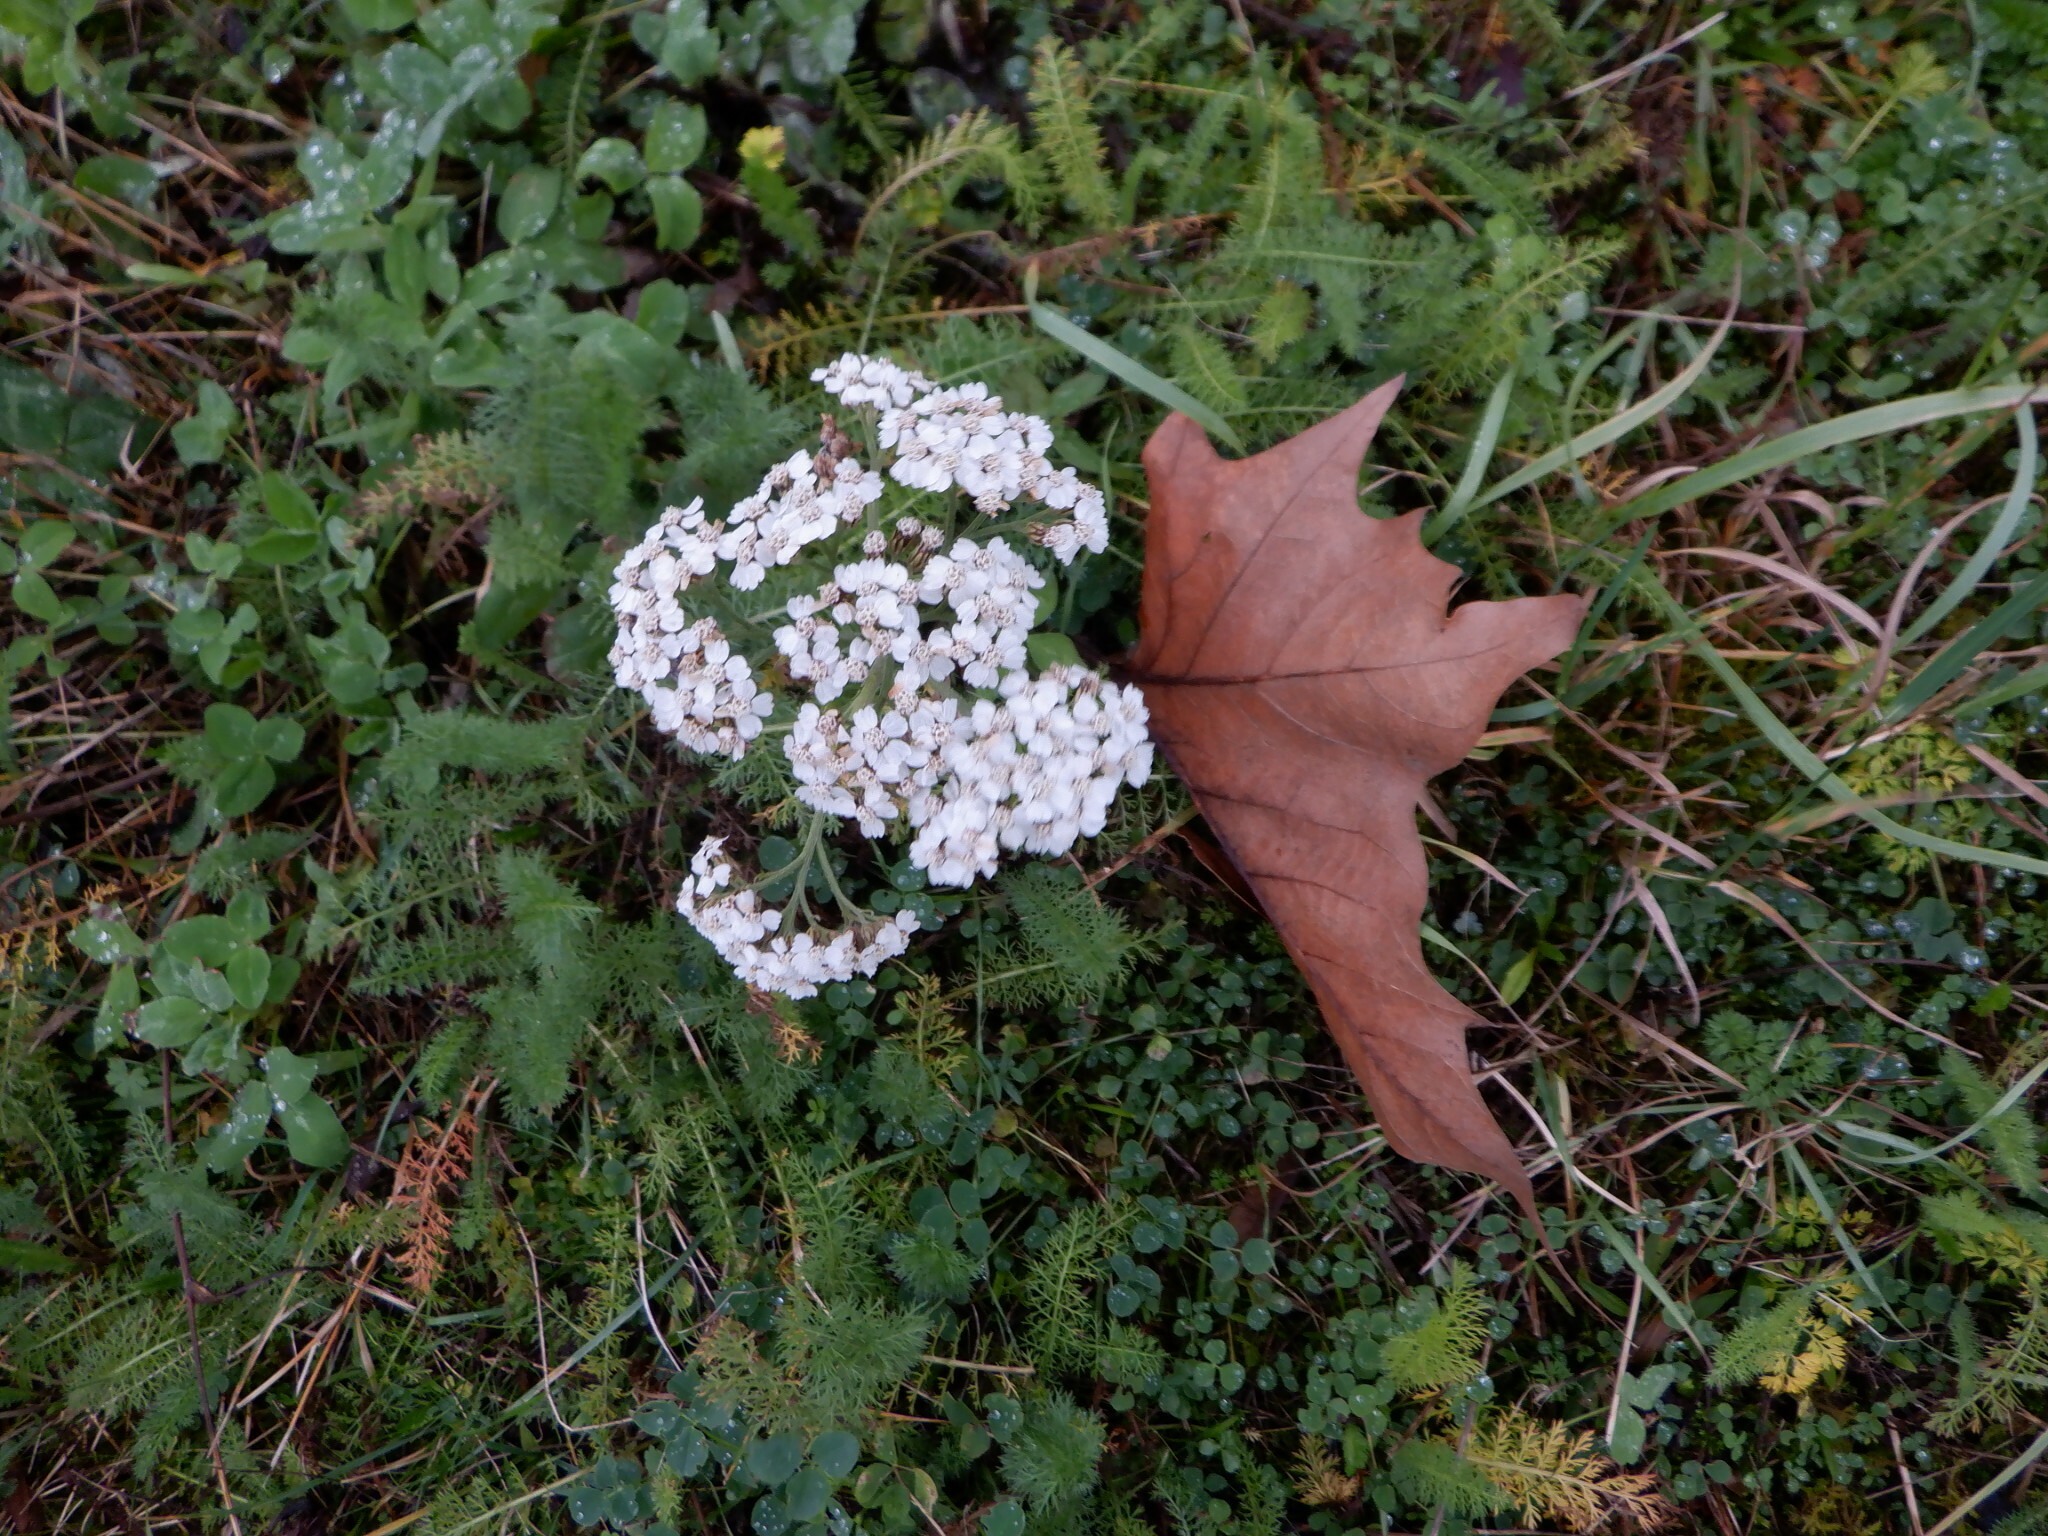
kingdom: Plantae
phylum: Tracheophyta
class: Magnoliopsida
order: Asterales
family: Asteraceae
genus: Achillea
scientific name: Achillea millefolium
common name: Yarrow
